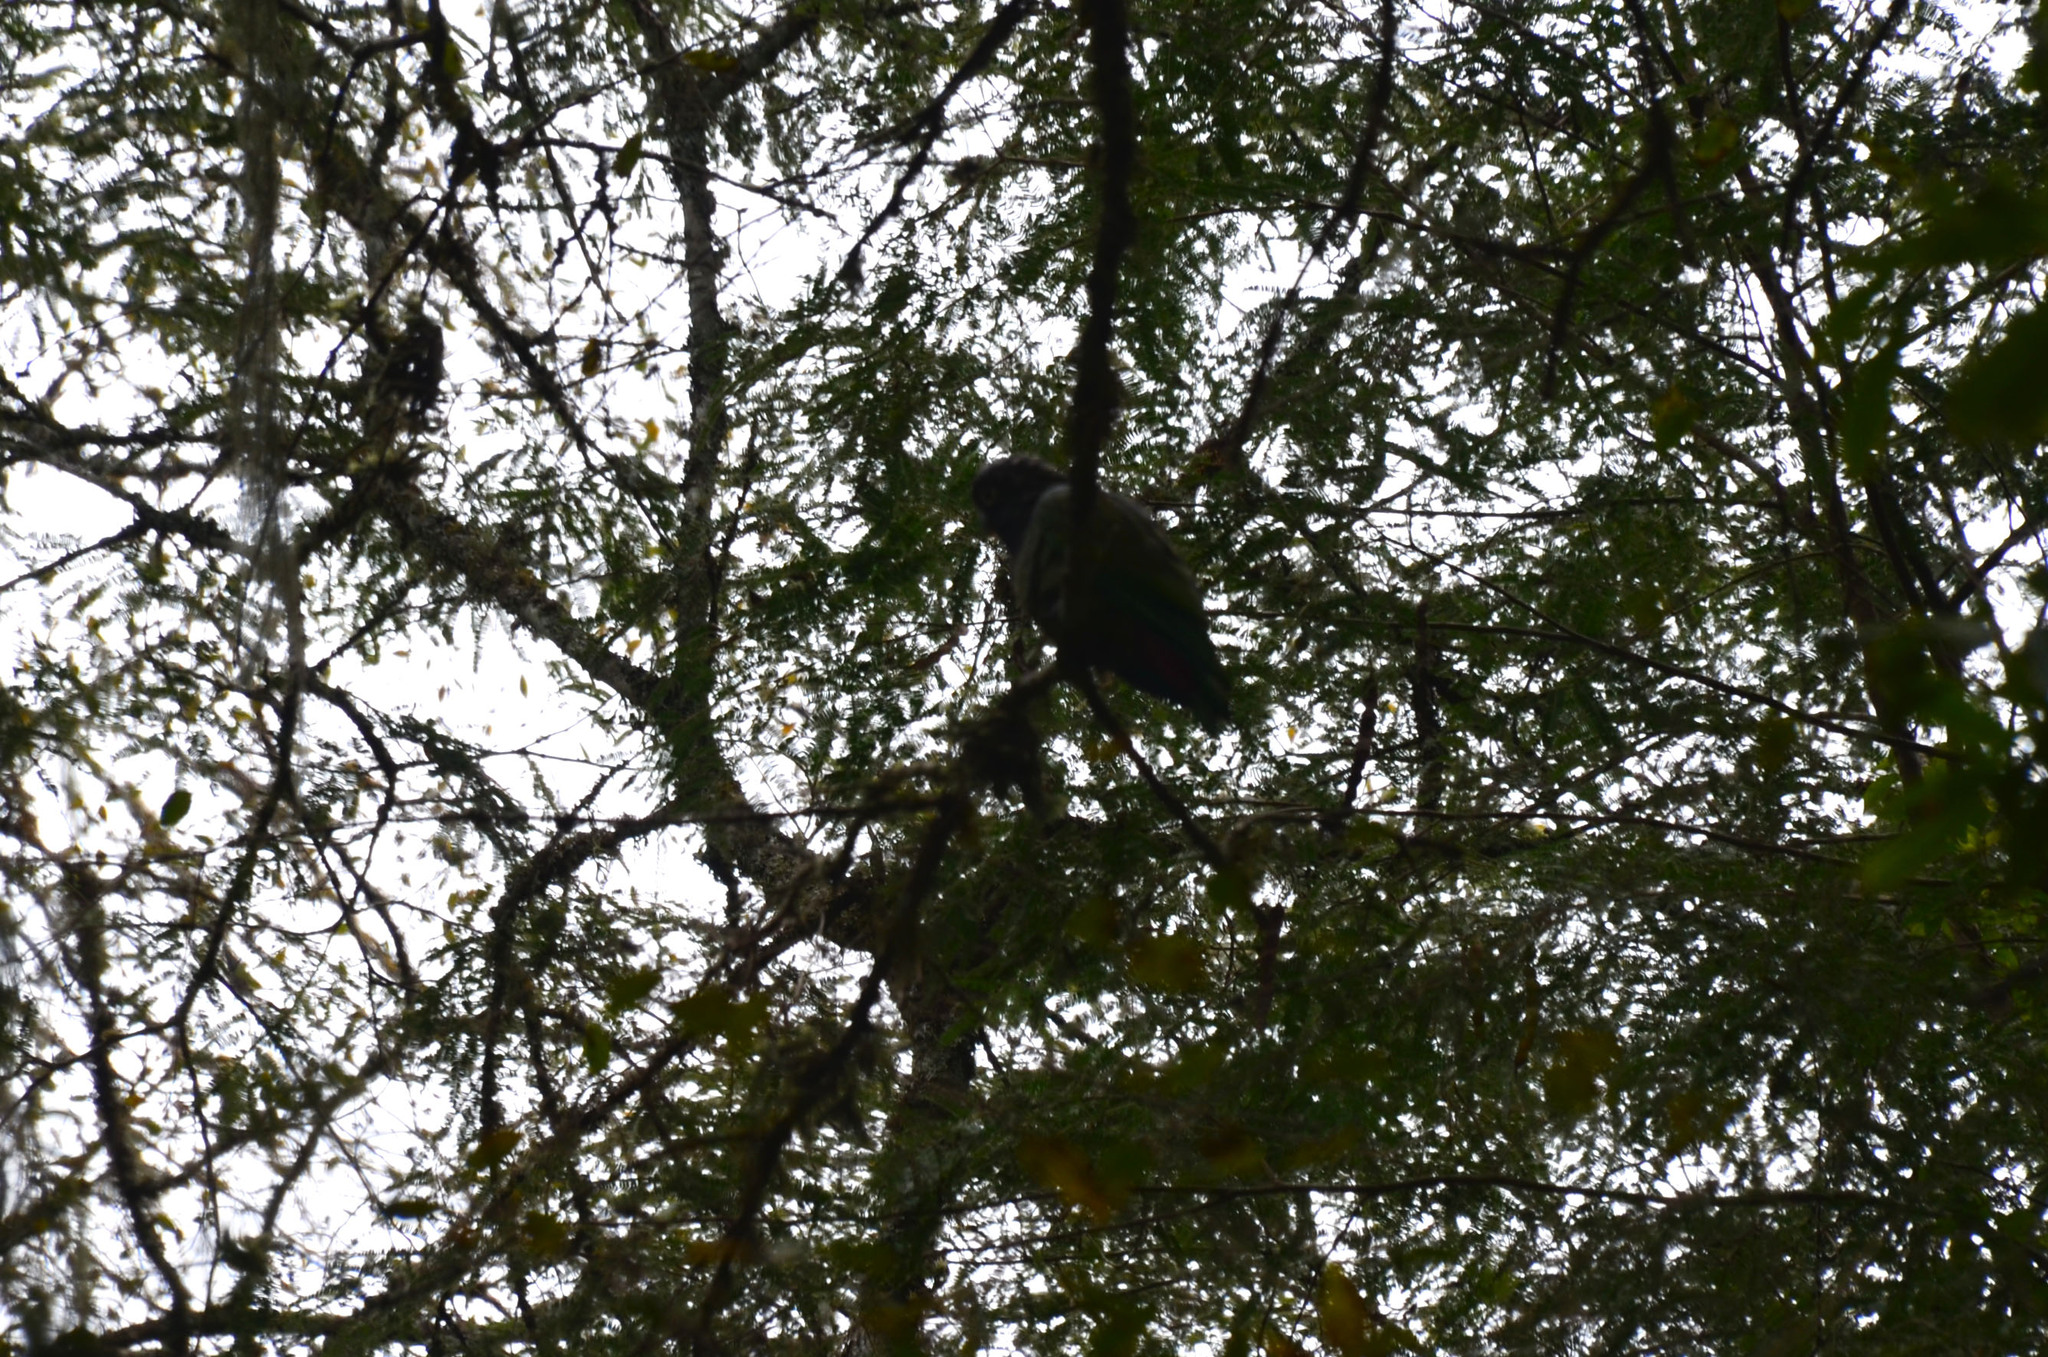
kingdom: Animalia
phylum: Chordata
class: Aves
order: Psittaciformes
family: Psittacidae
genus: Pionus
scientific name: Pionus maximiliani
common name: Scaly-headed parrot
